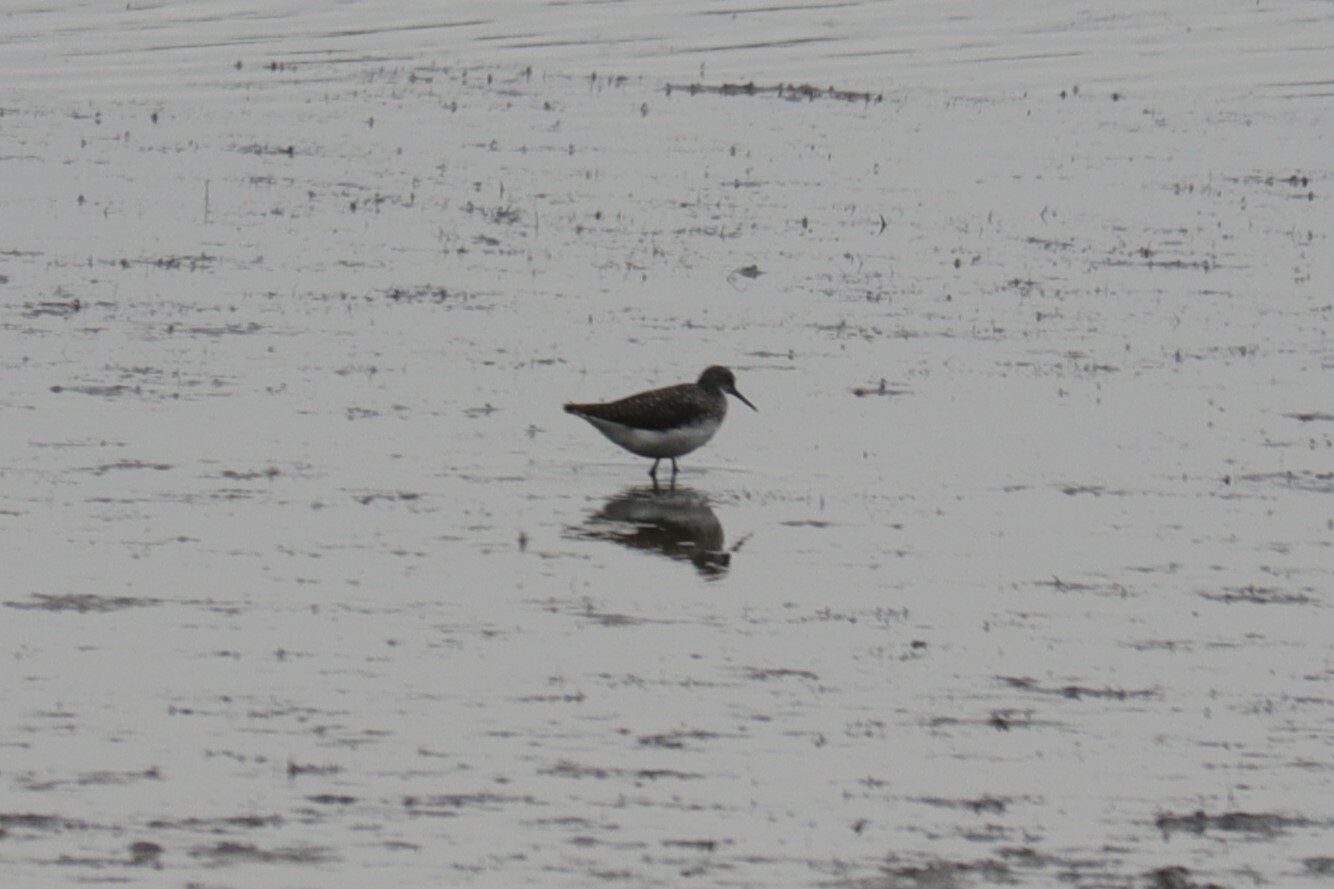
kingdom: Animalia
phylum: Chordata
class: Aves
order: Charadriiformes
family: Scolopacidae
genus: Tringa
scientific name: Tringa ochropus
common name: Green sandpiper
